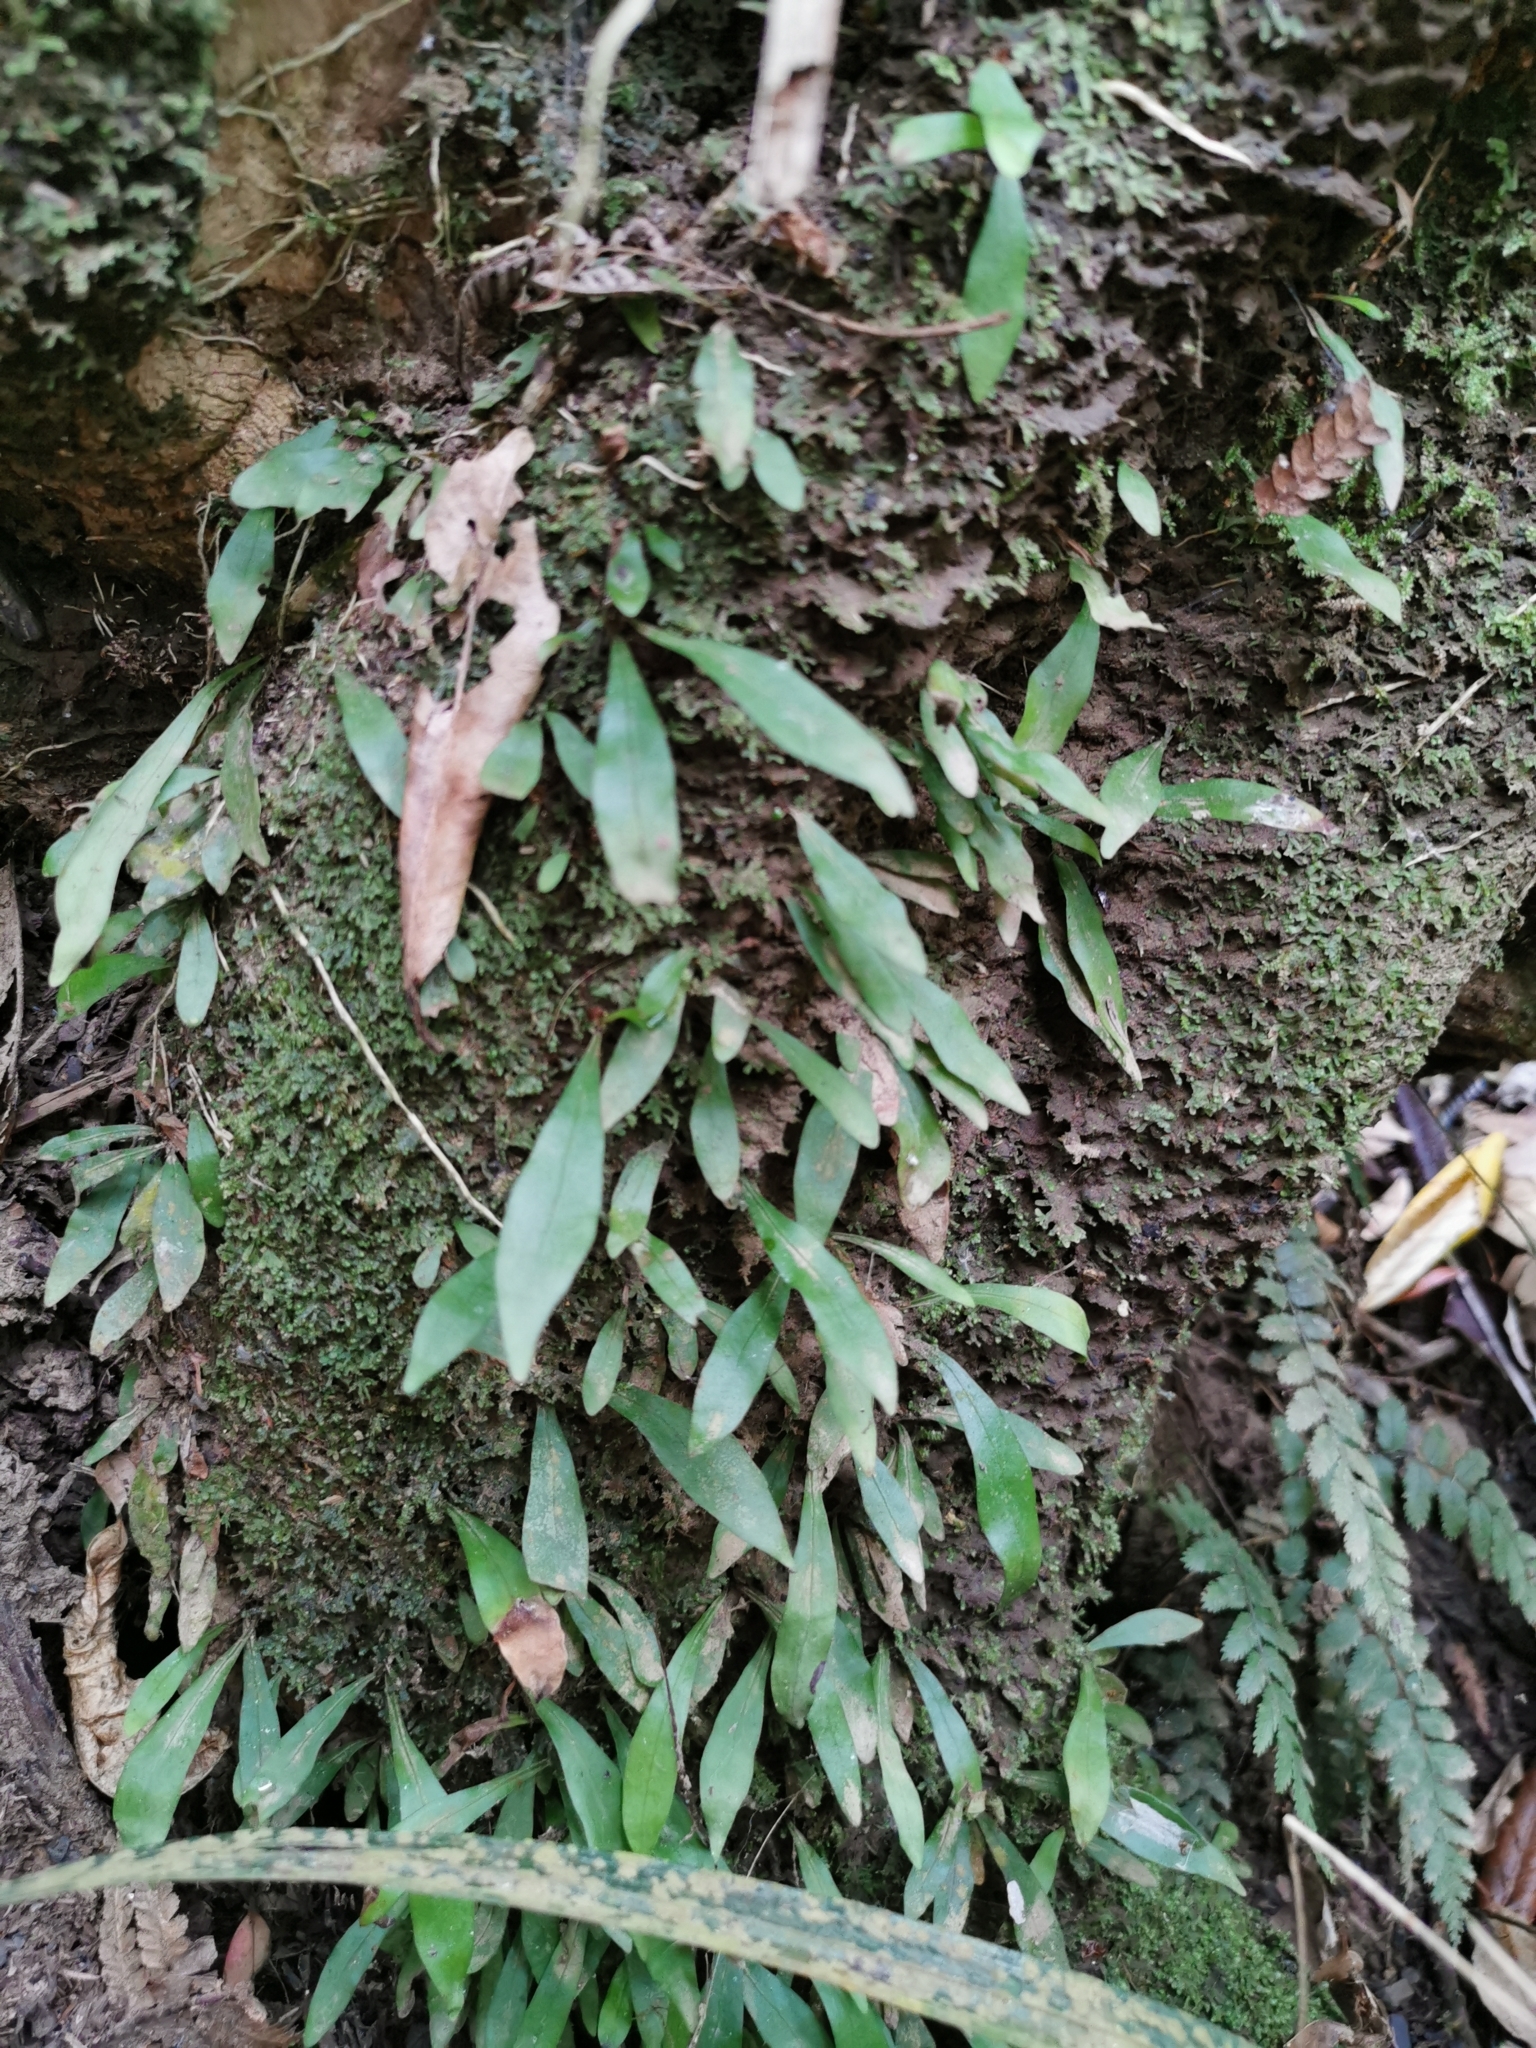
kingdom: Plantae
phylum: Tracheophyta
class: Polypodiopsida
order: Polypodiales
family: Polypodiaceae
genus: Loxogramme
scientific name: Loxogramme dictyopteris
